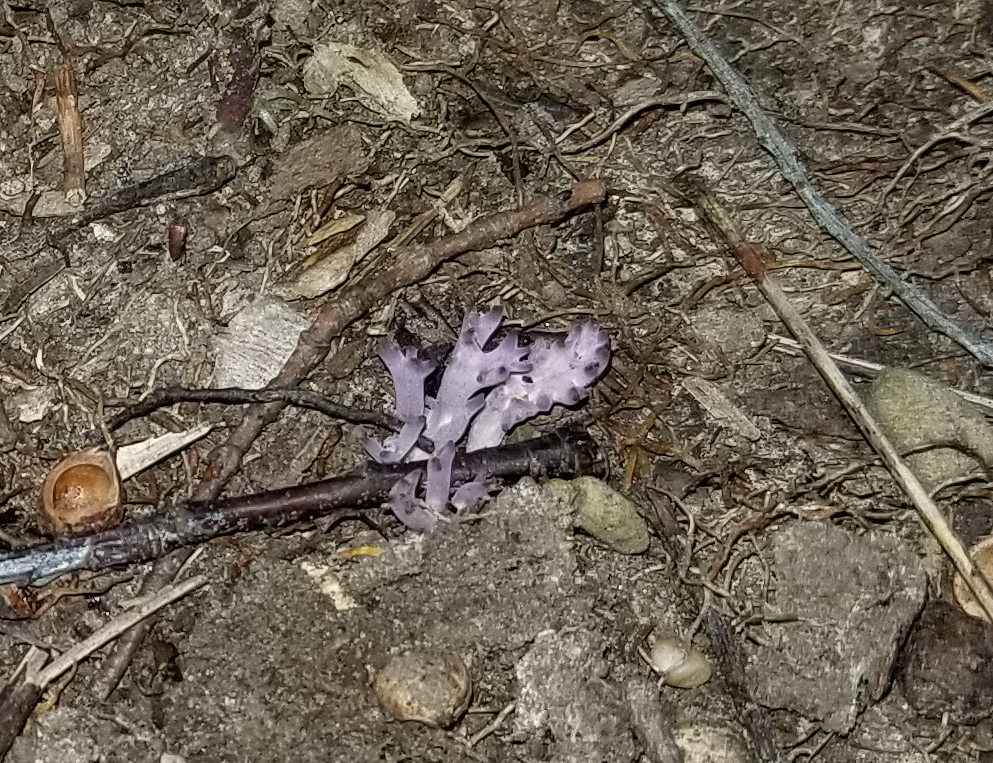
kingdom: Fungi
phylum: Basidiomycota
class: Agaricomycetes
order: Agaricales
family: Clavariaceae
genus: Clavaria
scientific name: Clavaria zollingeri
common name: Violet coral
